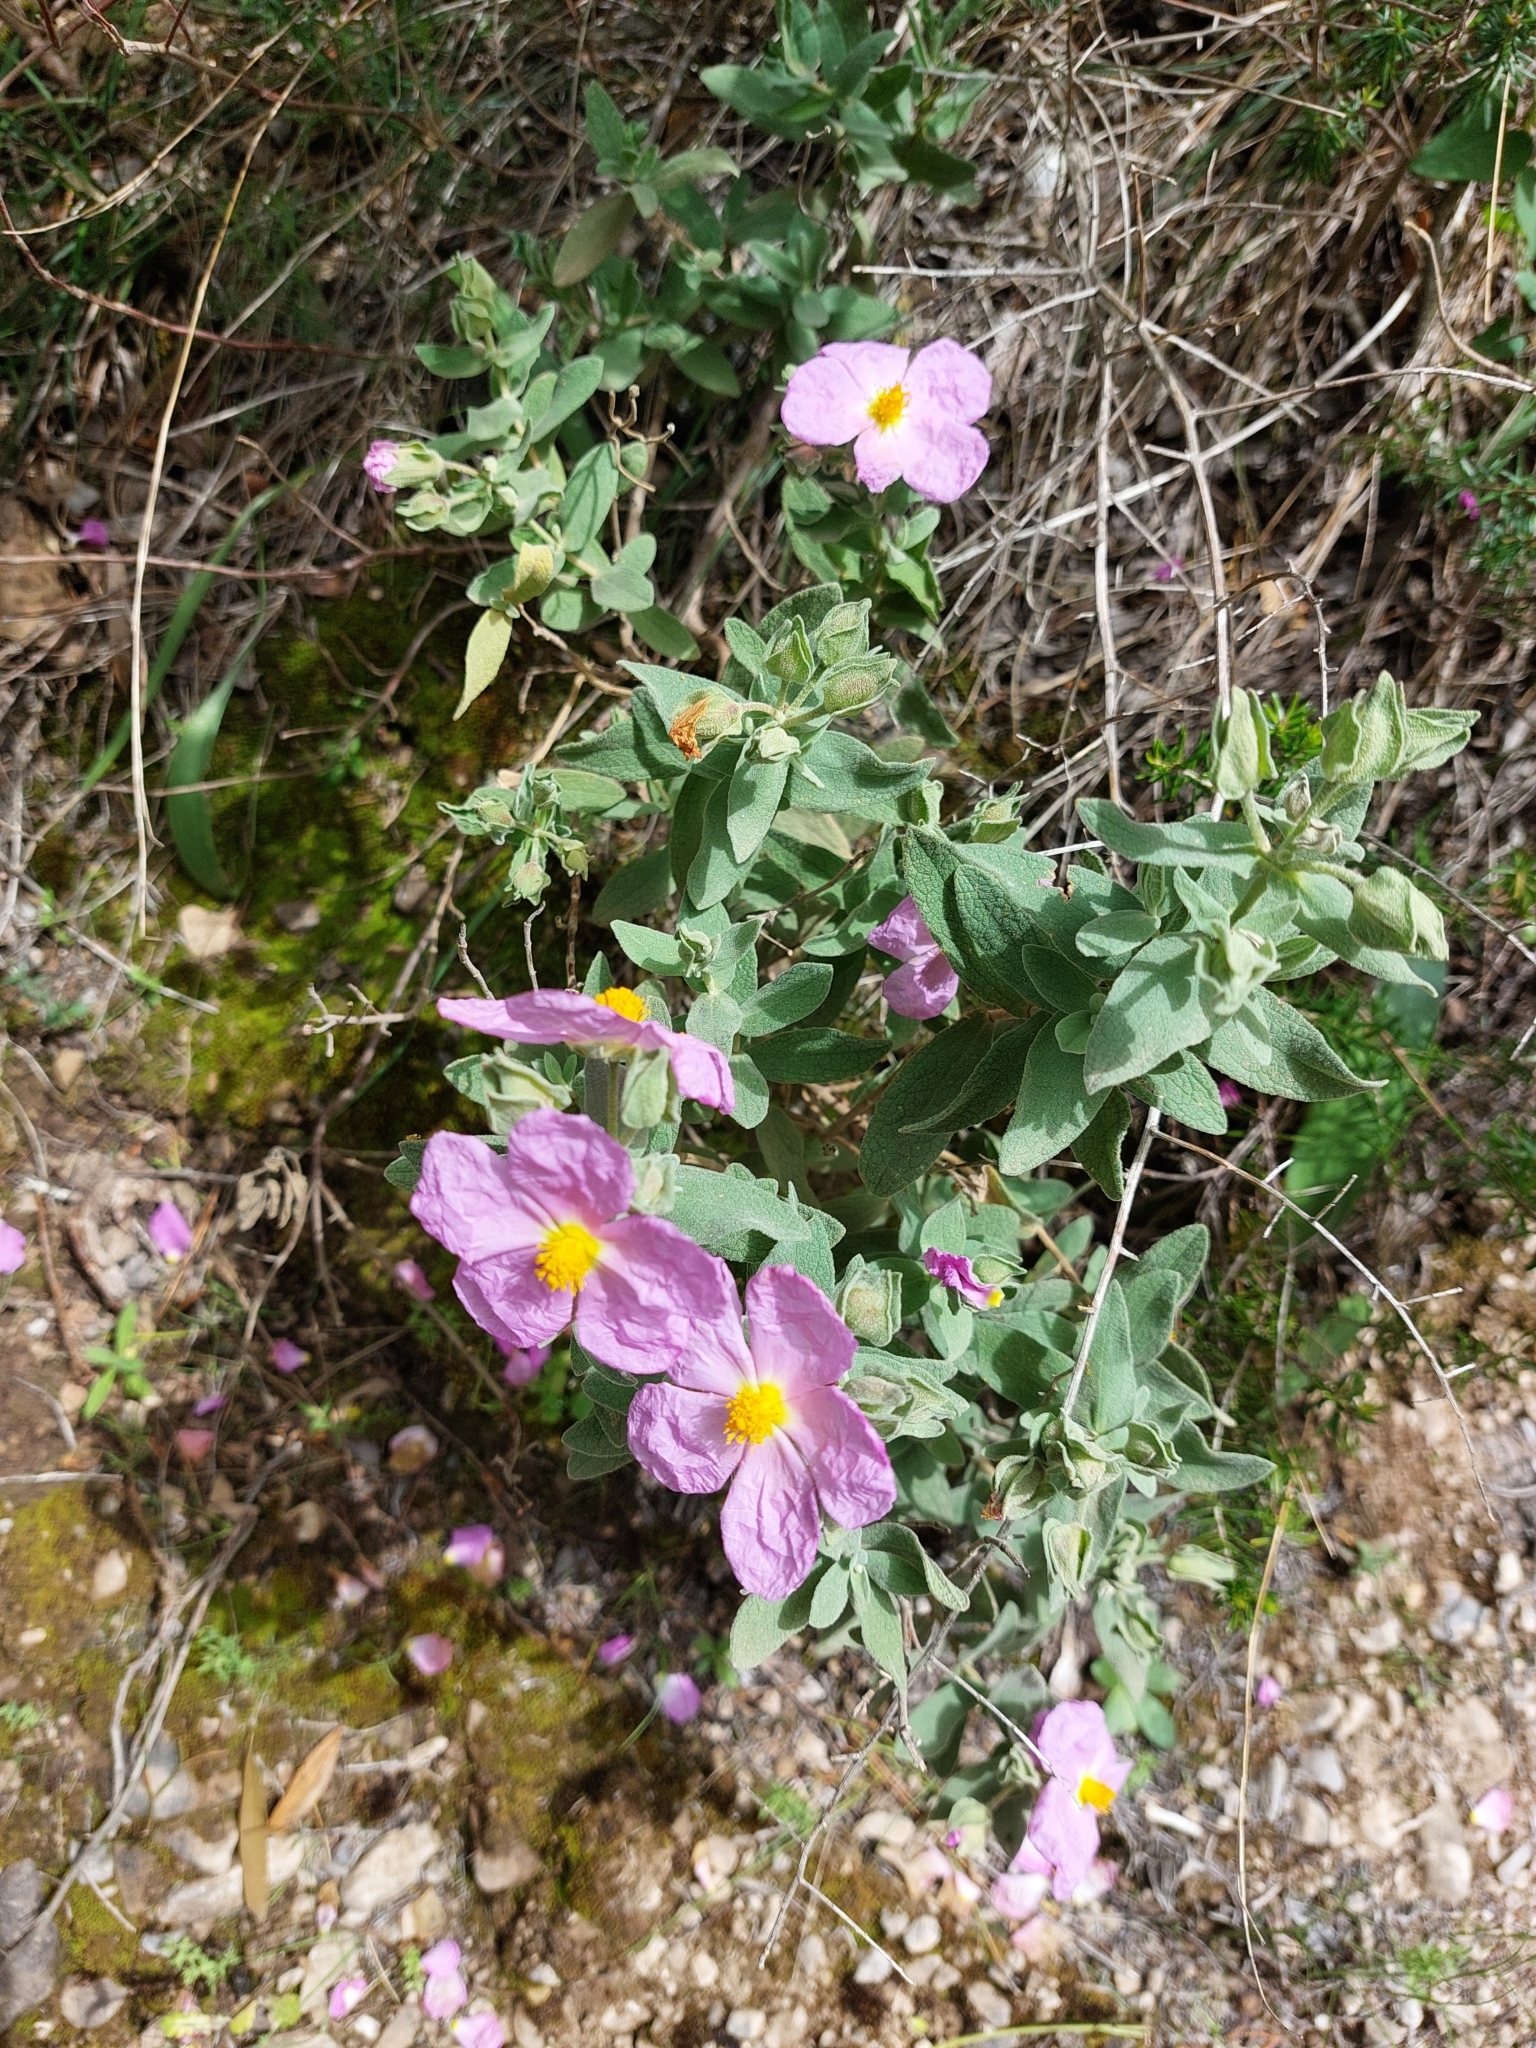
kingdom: Plantae
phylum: Tracheophyta
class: Magnoliopsida
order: Malvales
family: Cistaceae
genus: Cistus
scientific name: Cistus albidus
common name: White-leaf rock-rose
